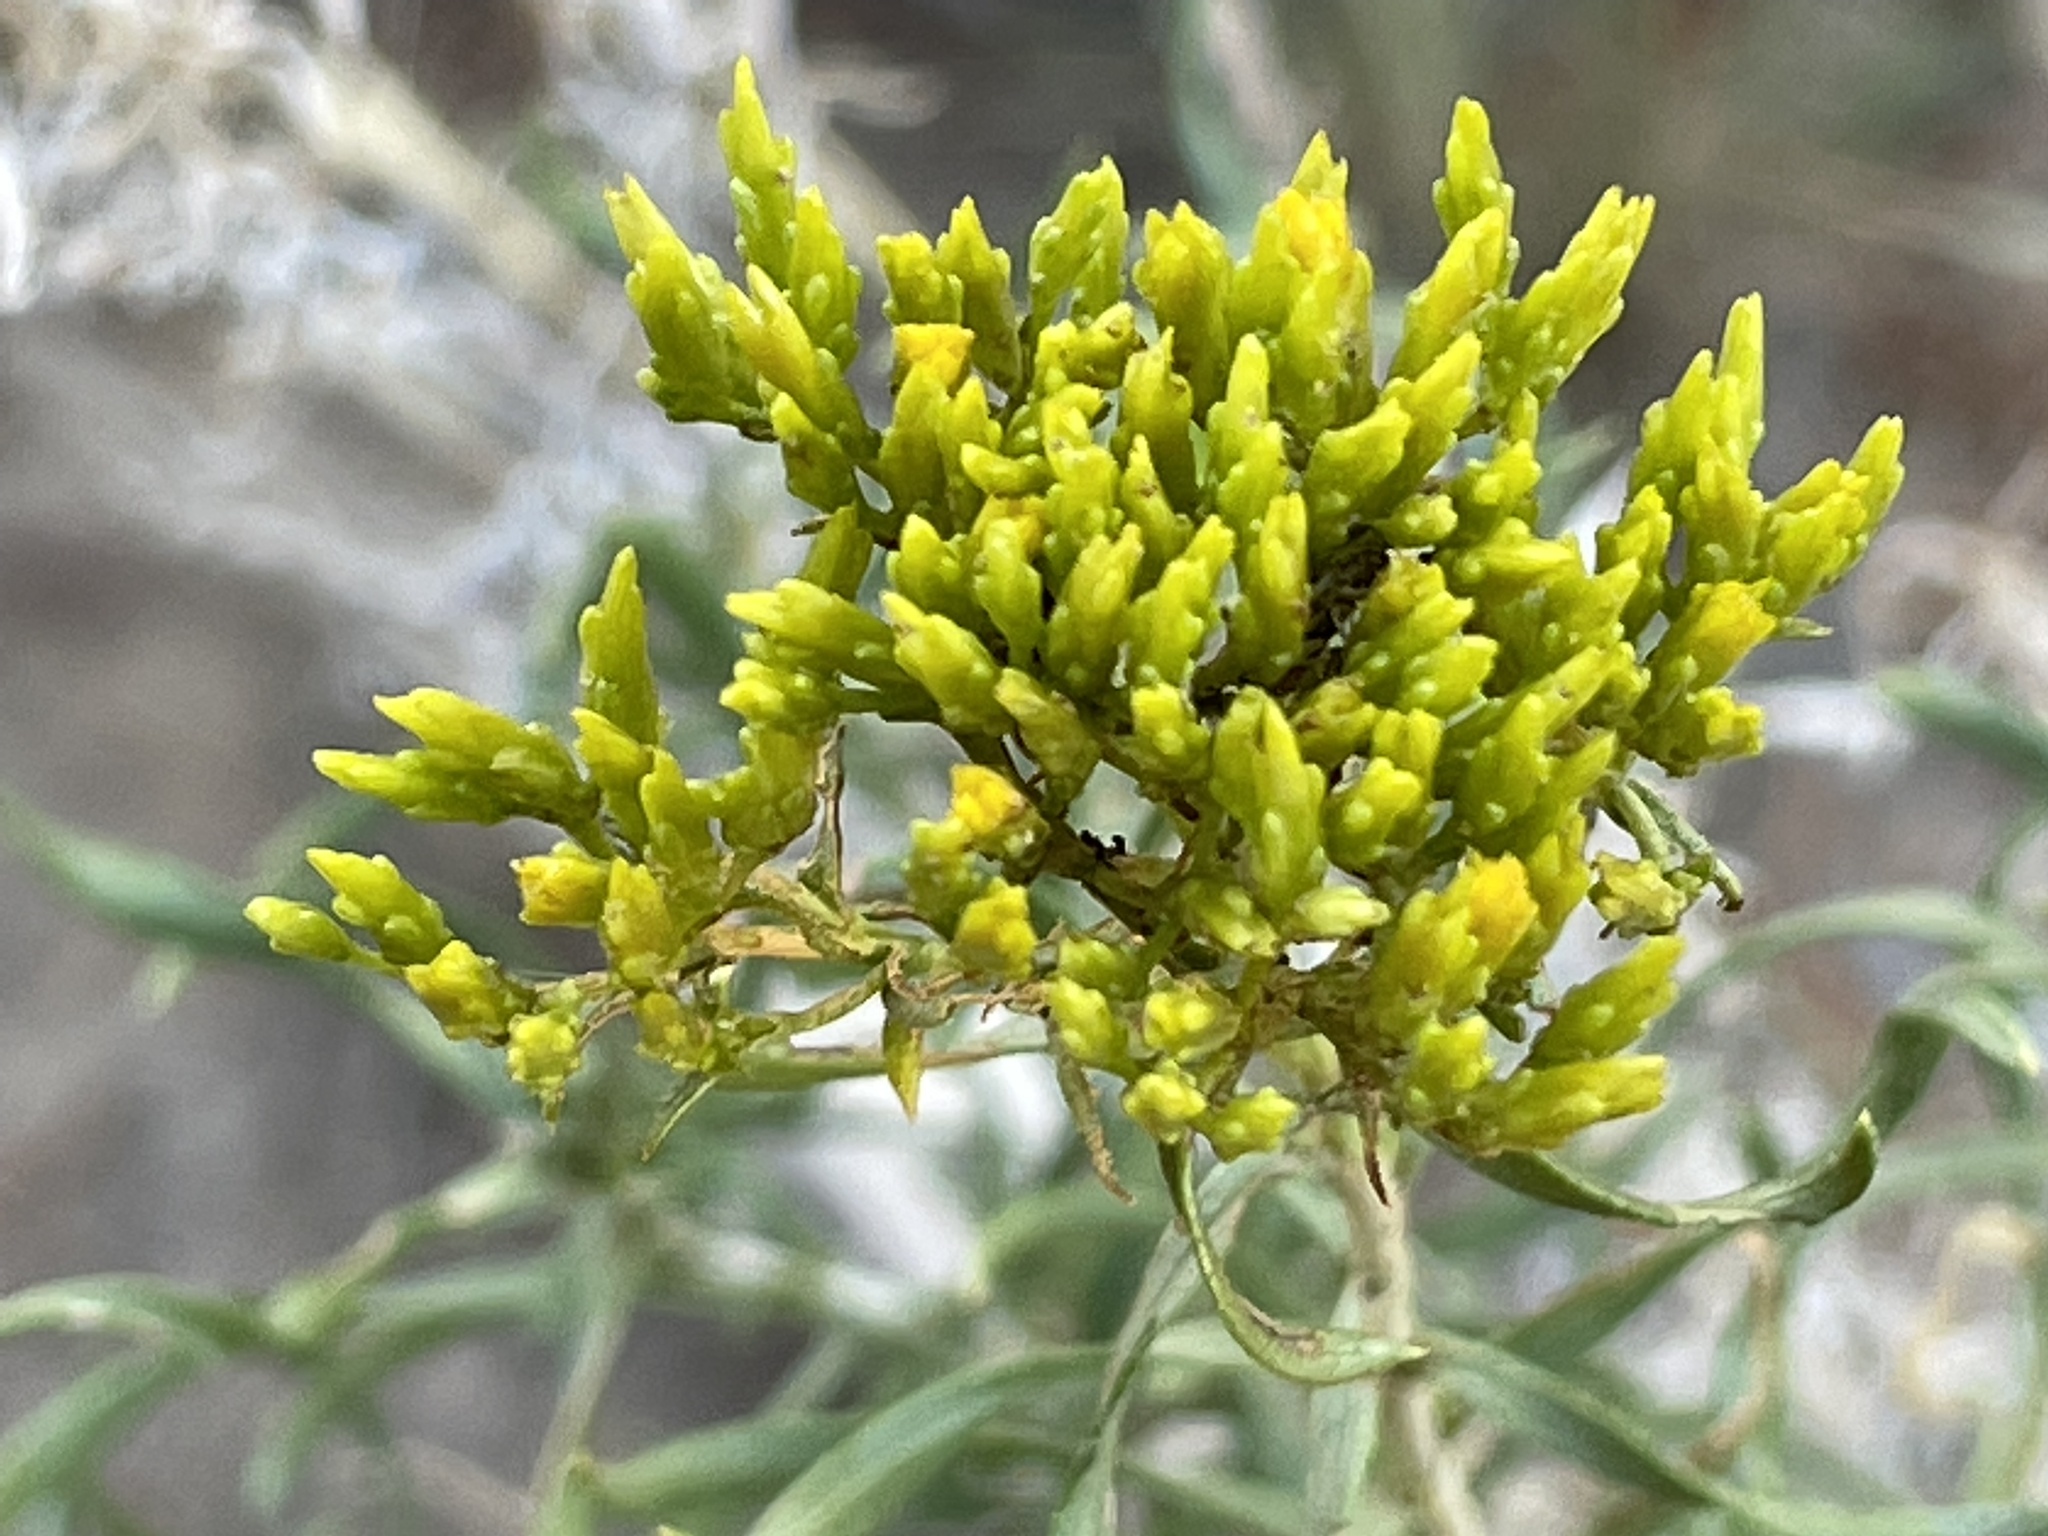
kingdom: Plantae
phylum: Tracheophyta
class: Magnoliopsida
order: Asterales
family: Asteraceae
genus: Chrysothamnus
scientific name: Chrysothamnus viscidiflorus
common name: Yellow rabbitbrush
